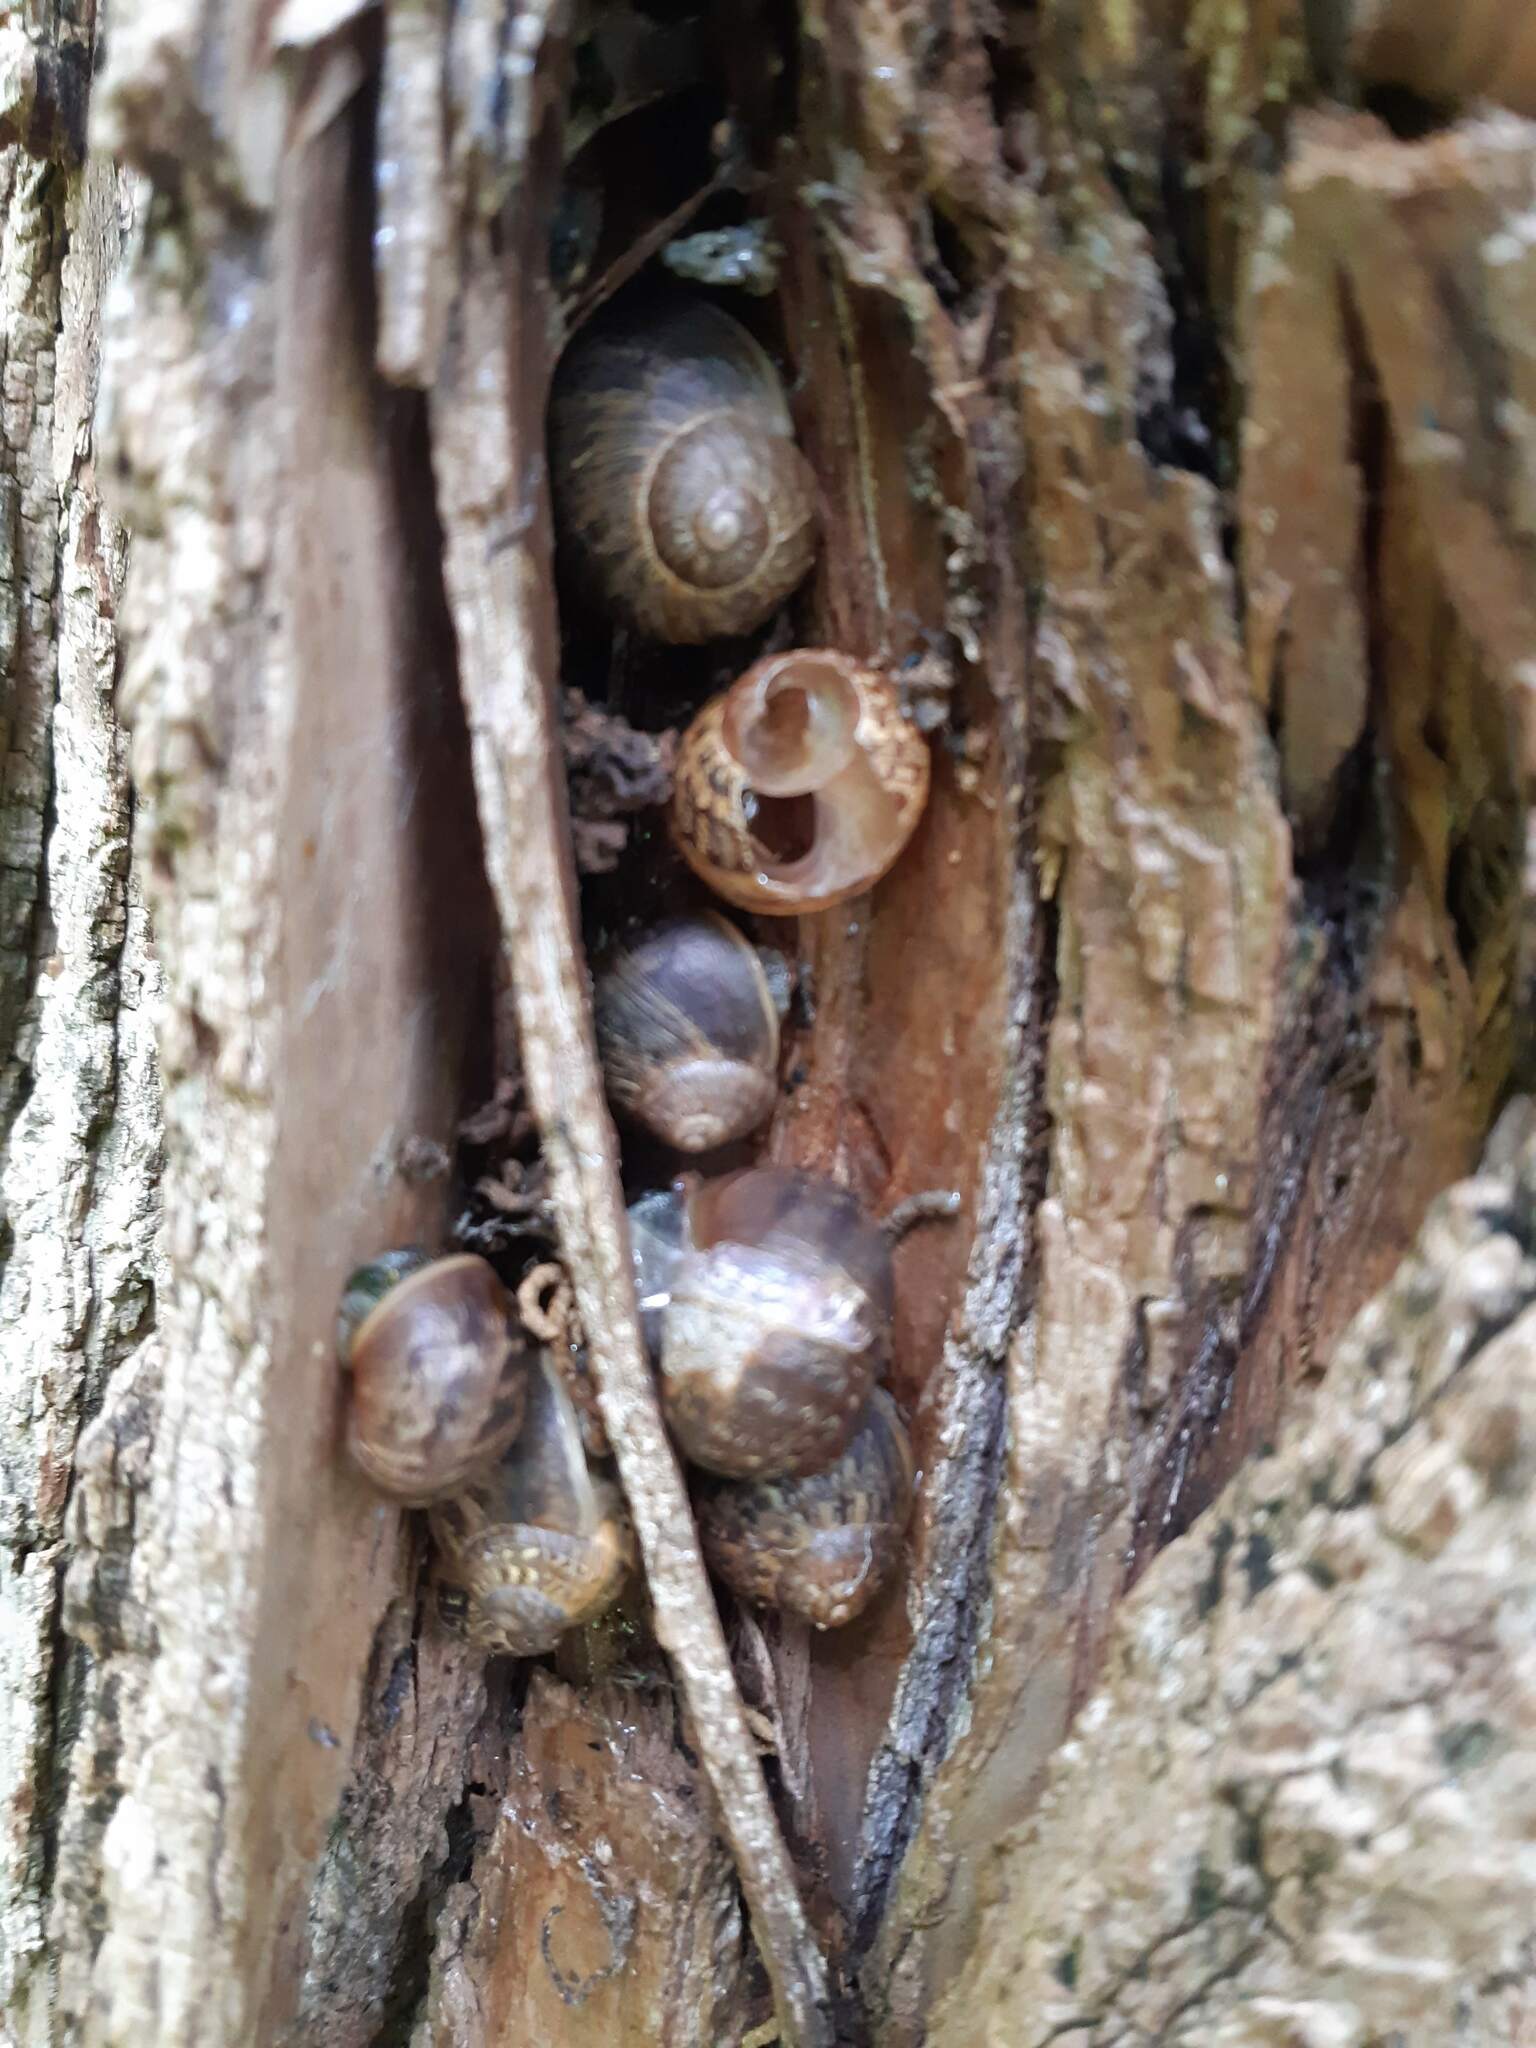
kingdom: Animalia
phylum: Mollusca
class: Gastropoda
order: Stylommatophora
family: Helicidae
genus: Cornu
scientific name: Cornu aspersum
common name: Brown garden snail
